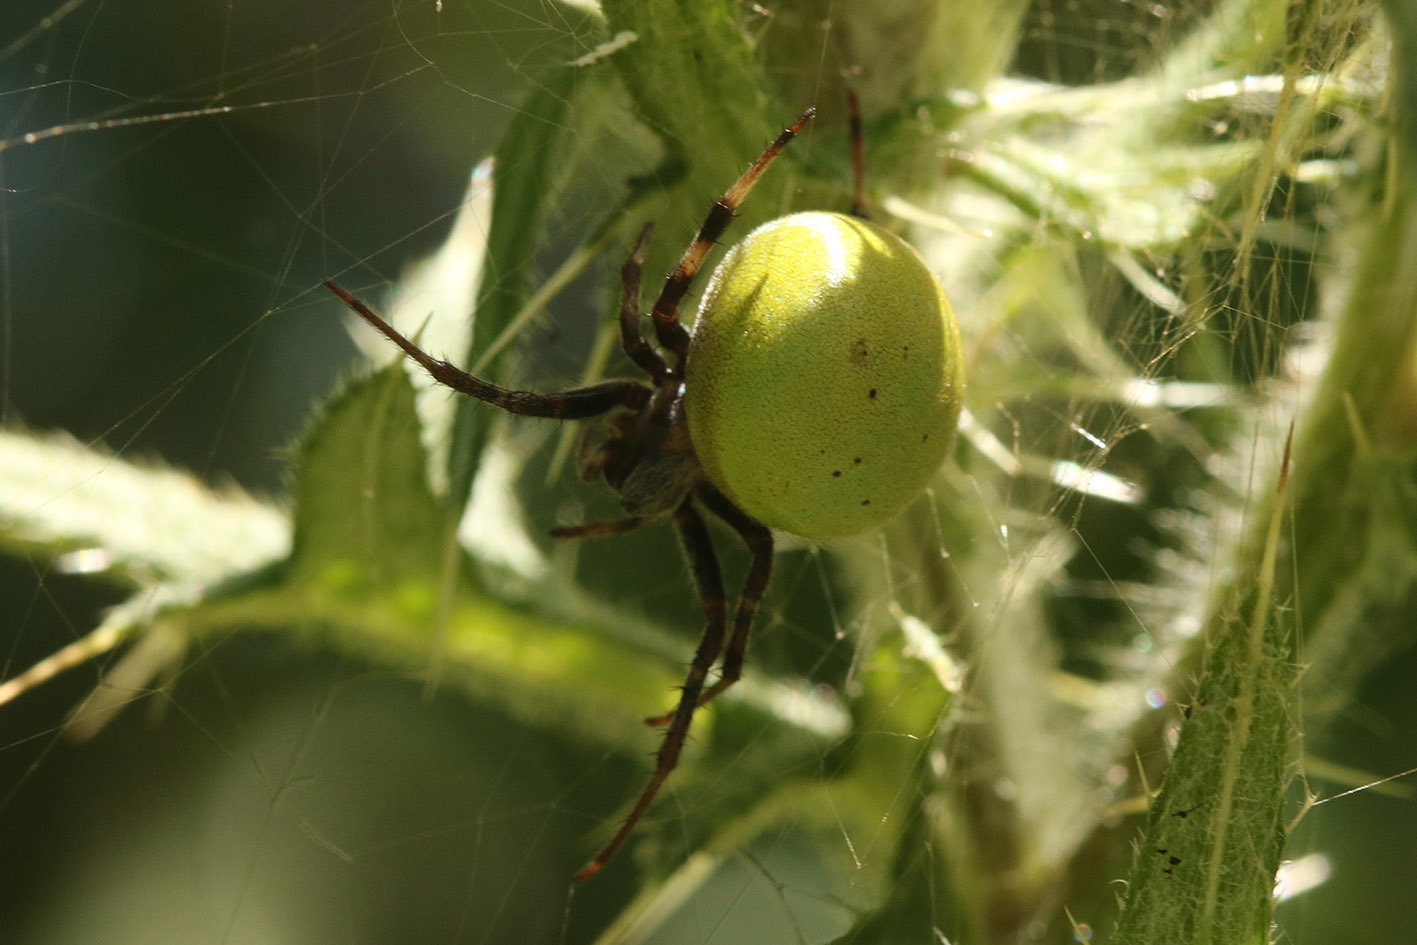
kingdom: Animalia
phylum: Arthropoda
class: Arachnida
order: Araneae
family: Araneidae
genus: Araneus
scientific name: Araneus lathyrinus
